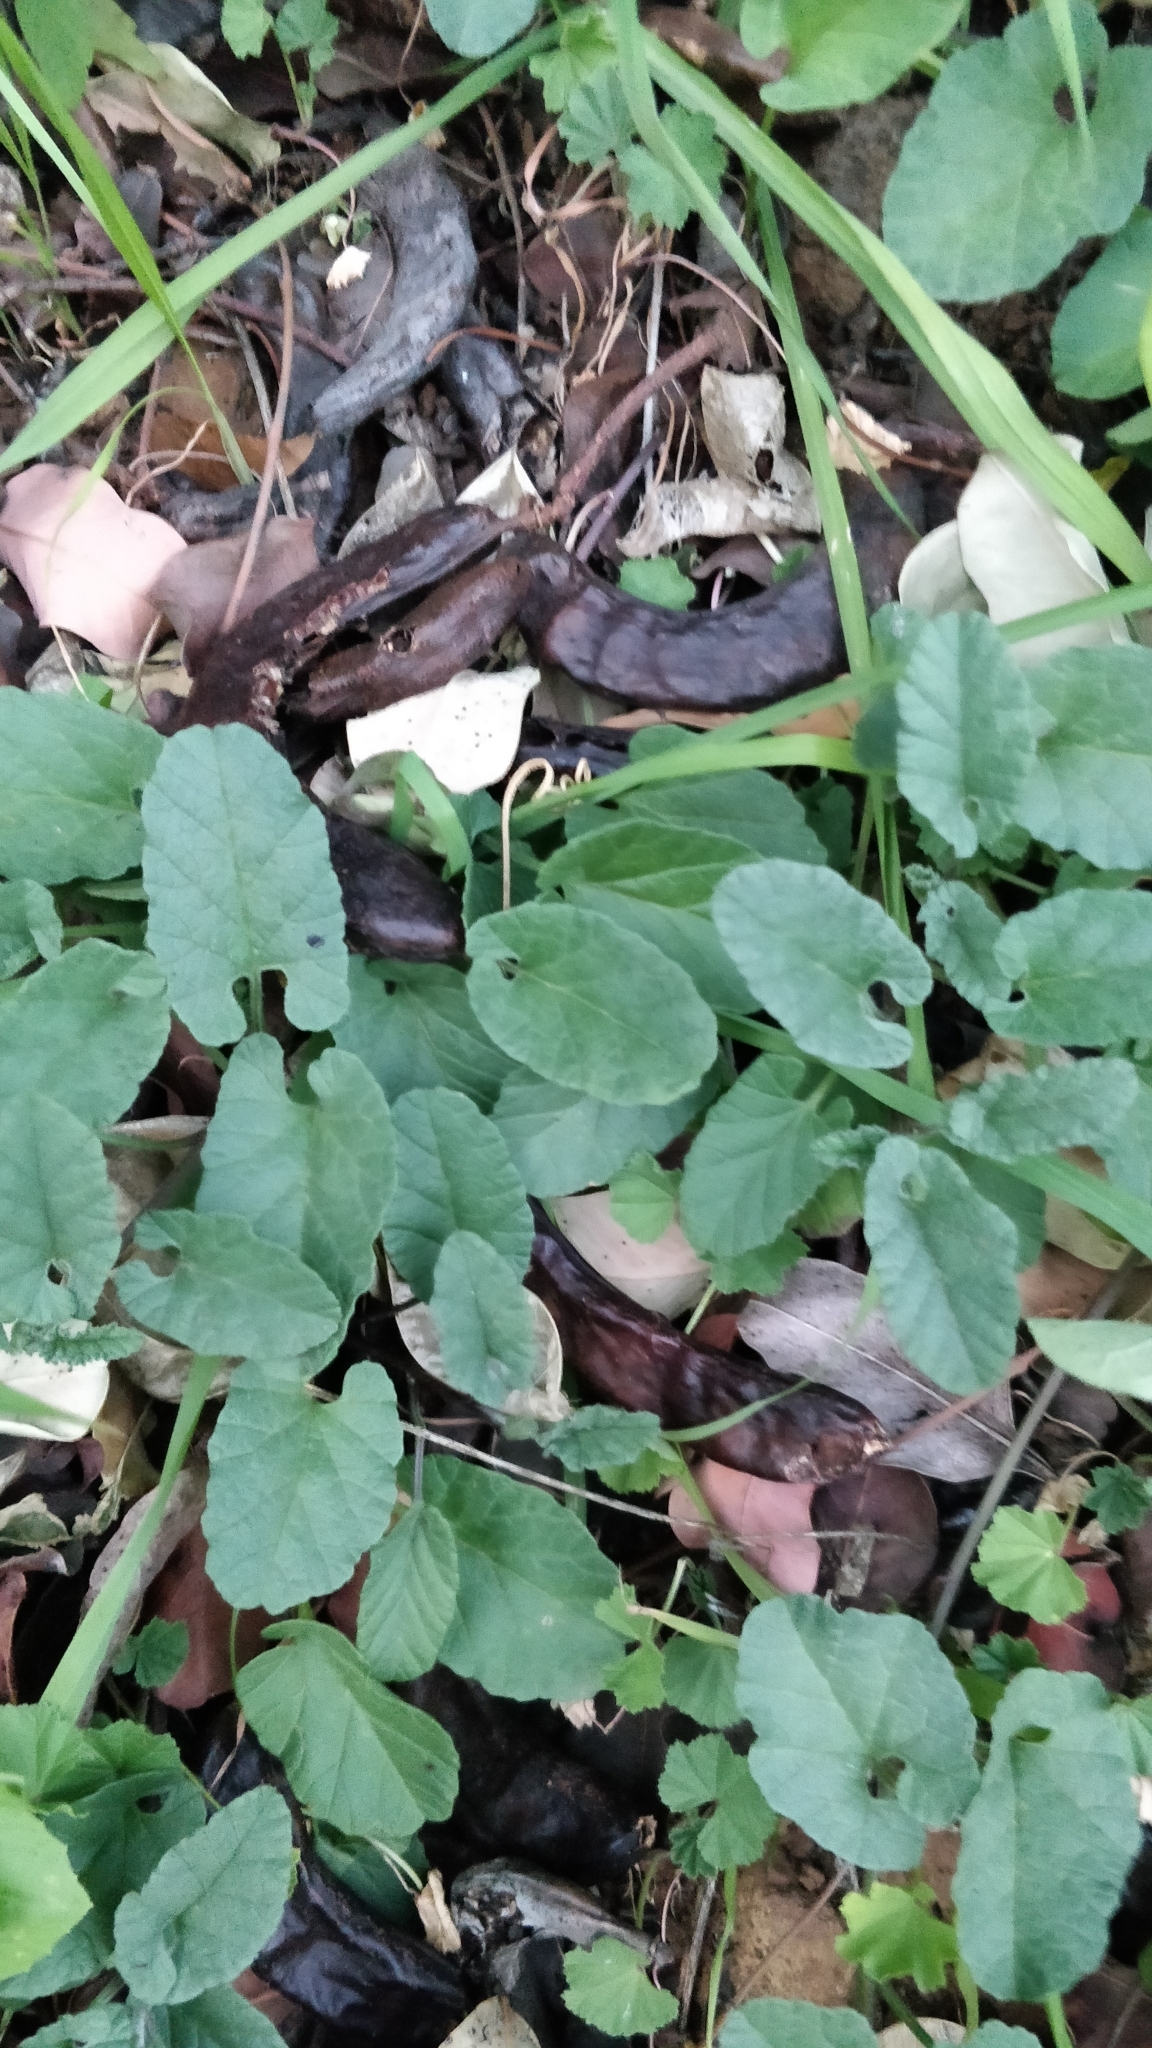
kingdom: Plantae
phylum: Tracheophyta
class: Magnoliopsida
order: Solanales
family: Convolvulaceae
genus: Convolvulus
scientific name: Convolvulus althaeoides
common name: Mallow bindweed
